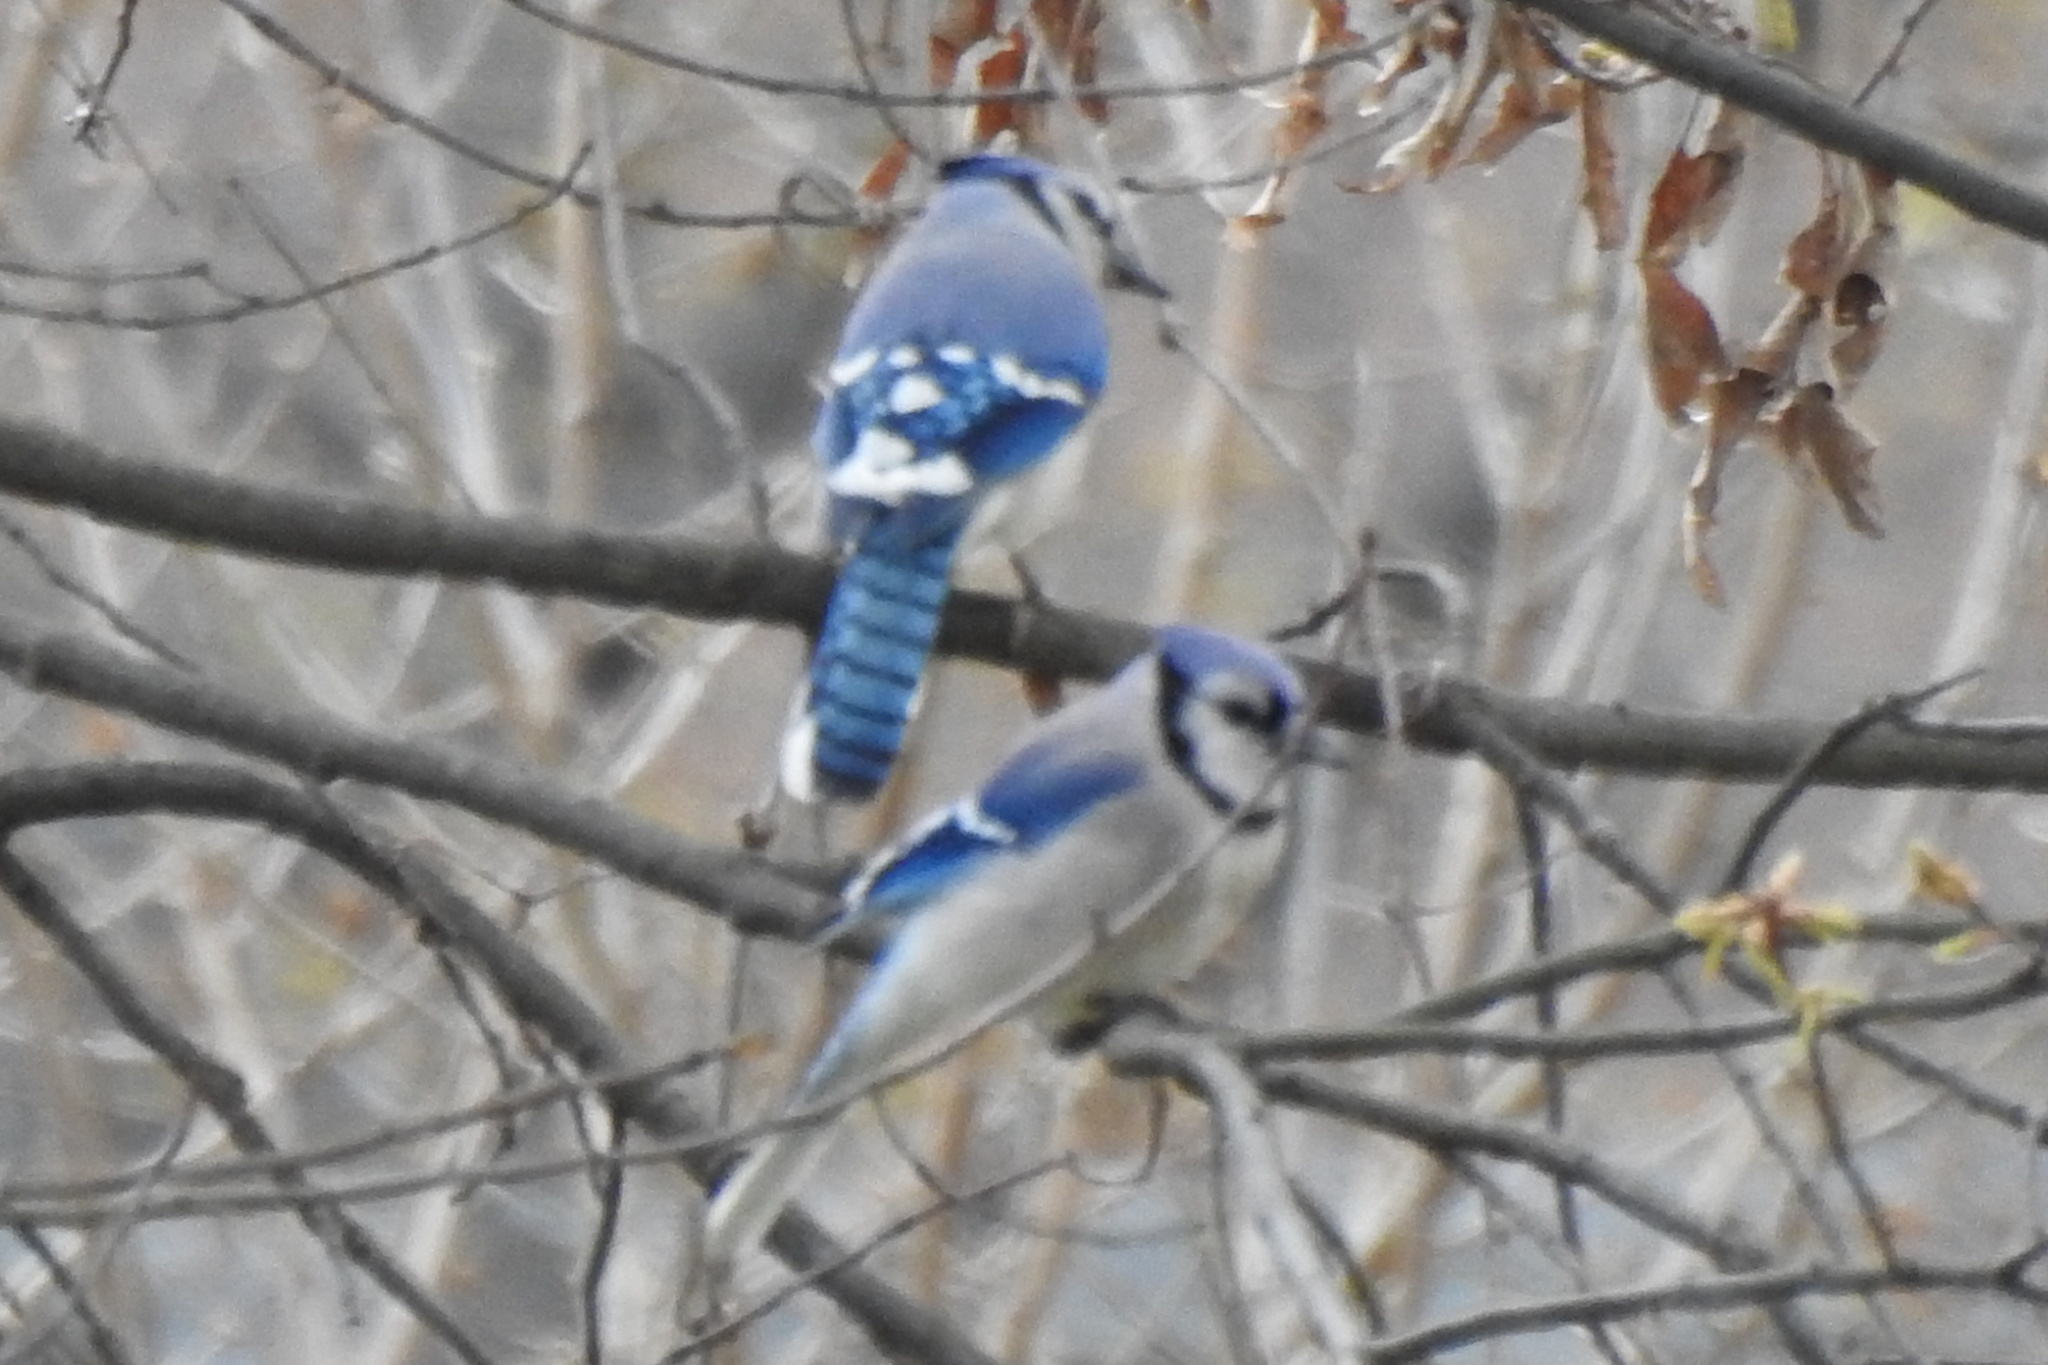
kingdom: Animalia
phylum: Chordata
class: Aves
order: Passeriformes
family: Corvidae
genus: Cyanocitta
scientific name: Cyanocitta cristata
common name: Blue jay
